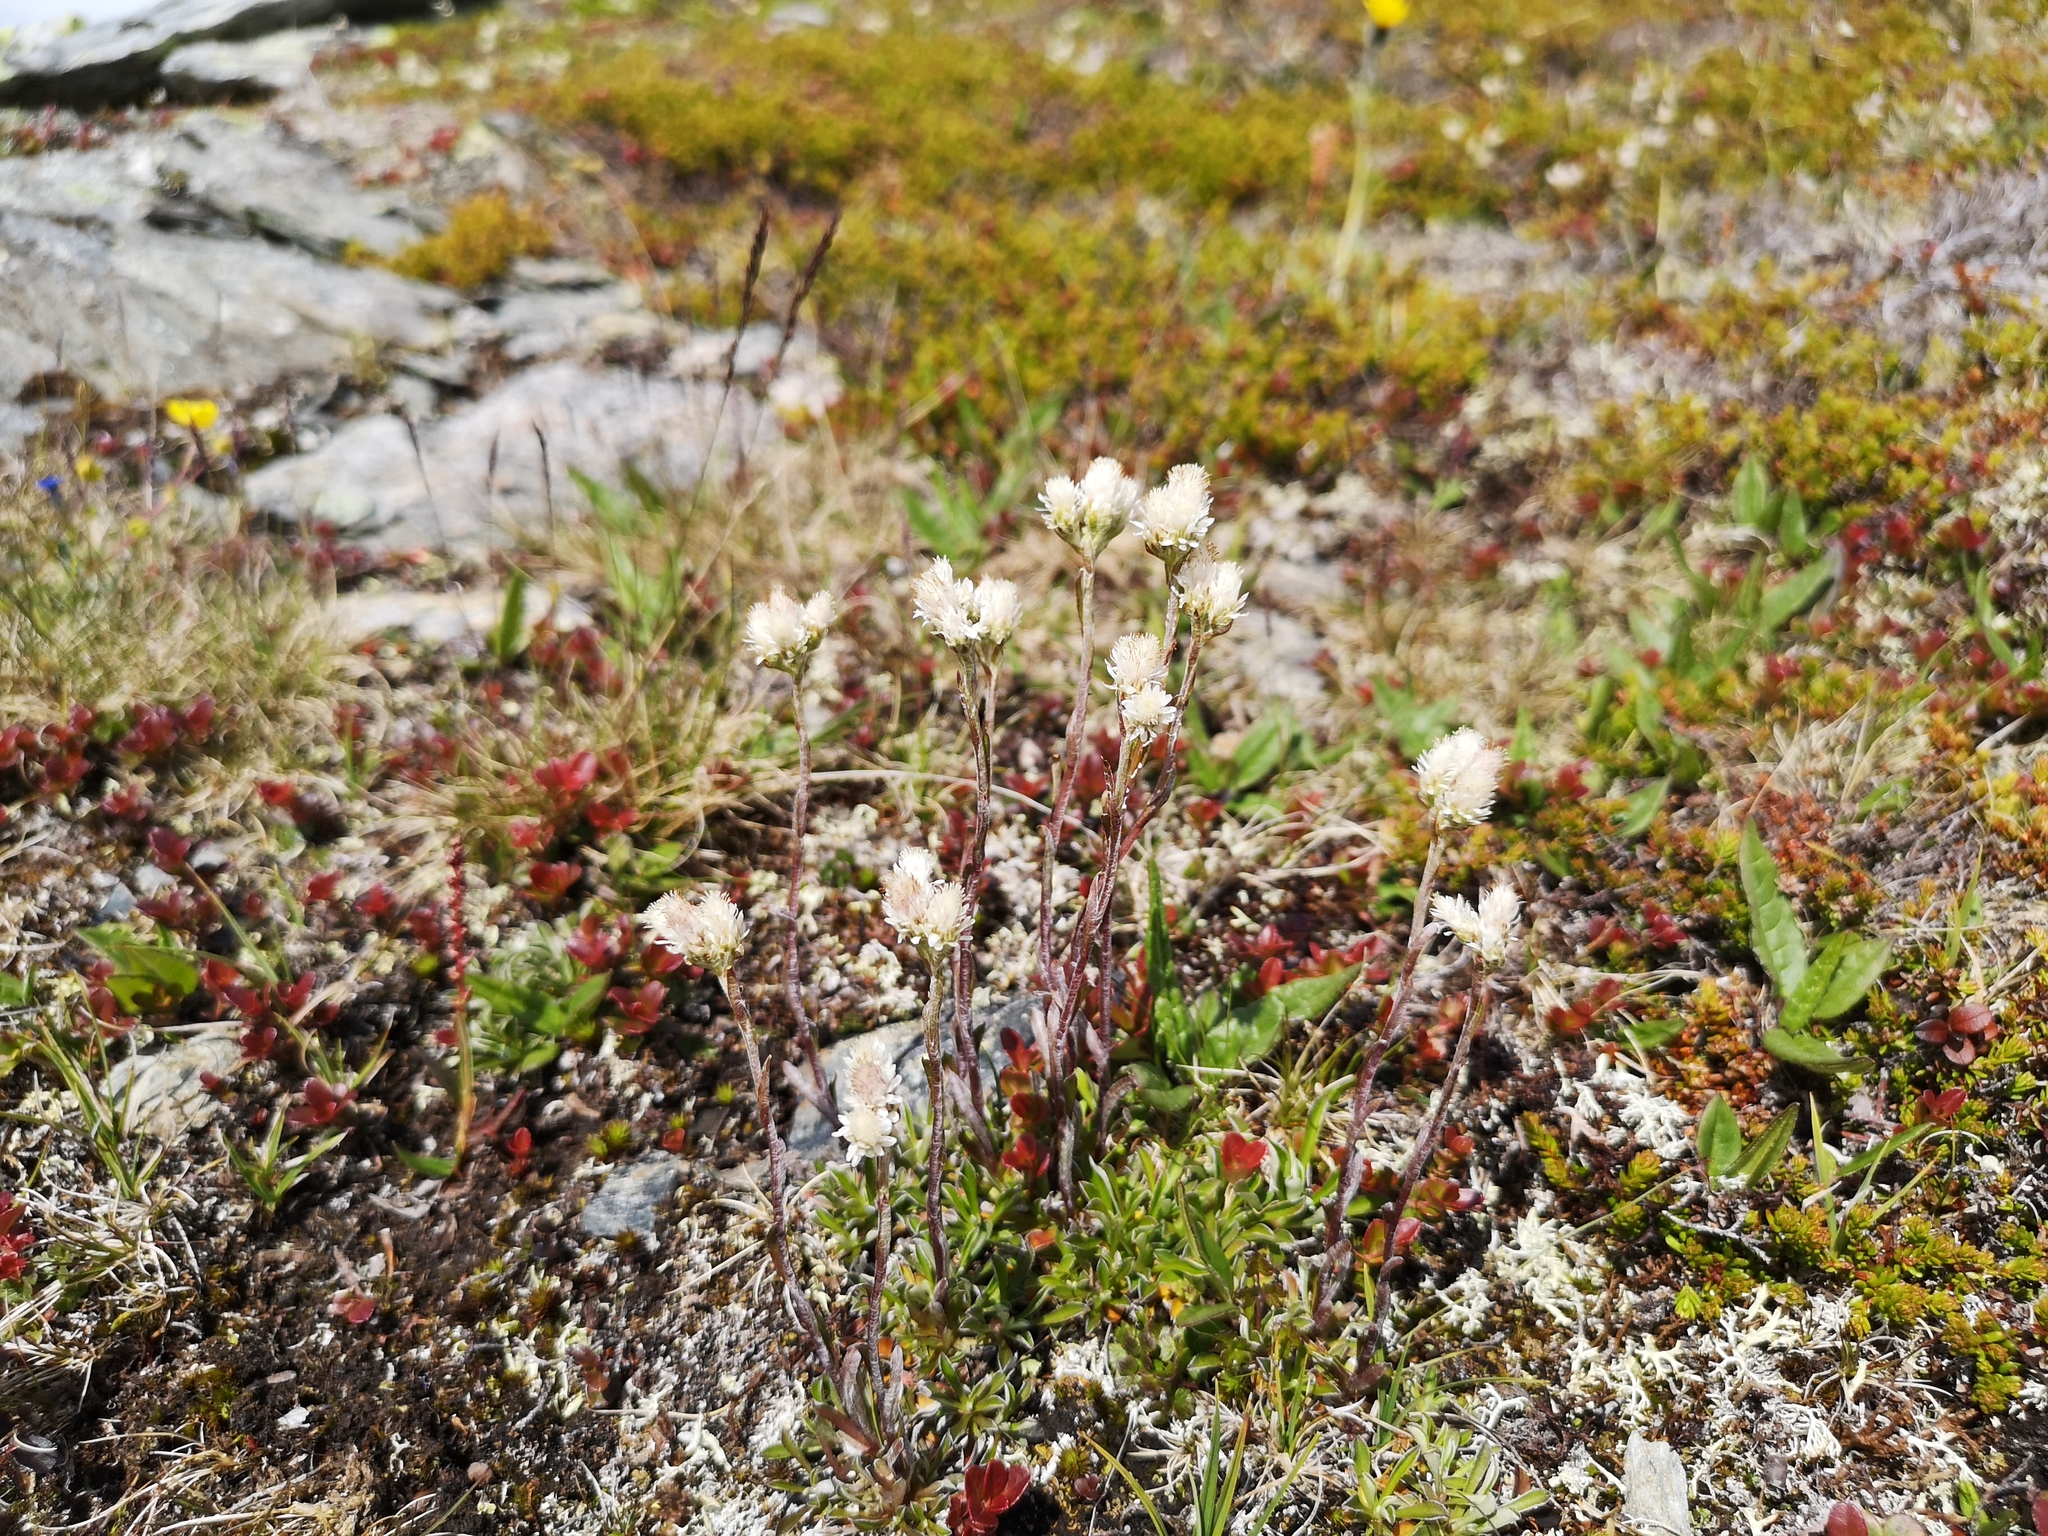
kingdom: Plantae
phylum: Tracheophyta
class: Magnoliopsida
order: Asterales
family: Asteraceae
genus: Antennaria
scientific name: Antennaria dioica
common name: Mountain everlasting
